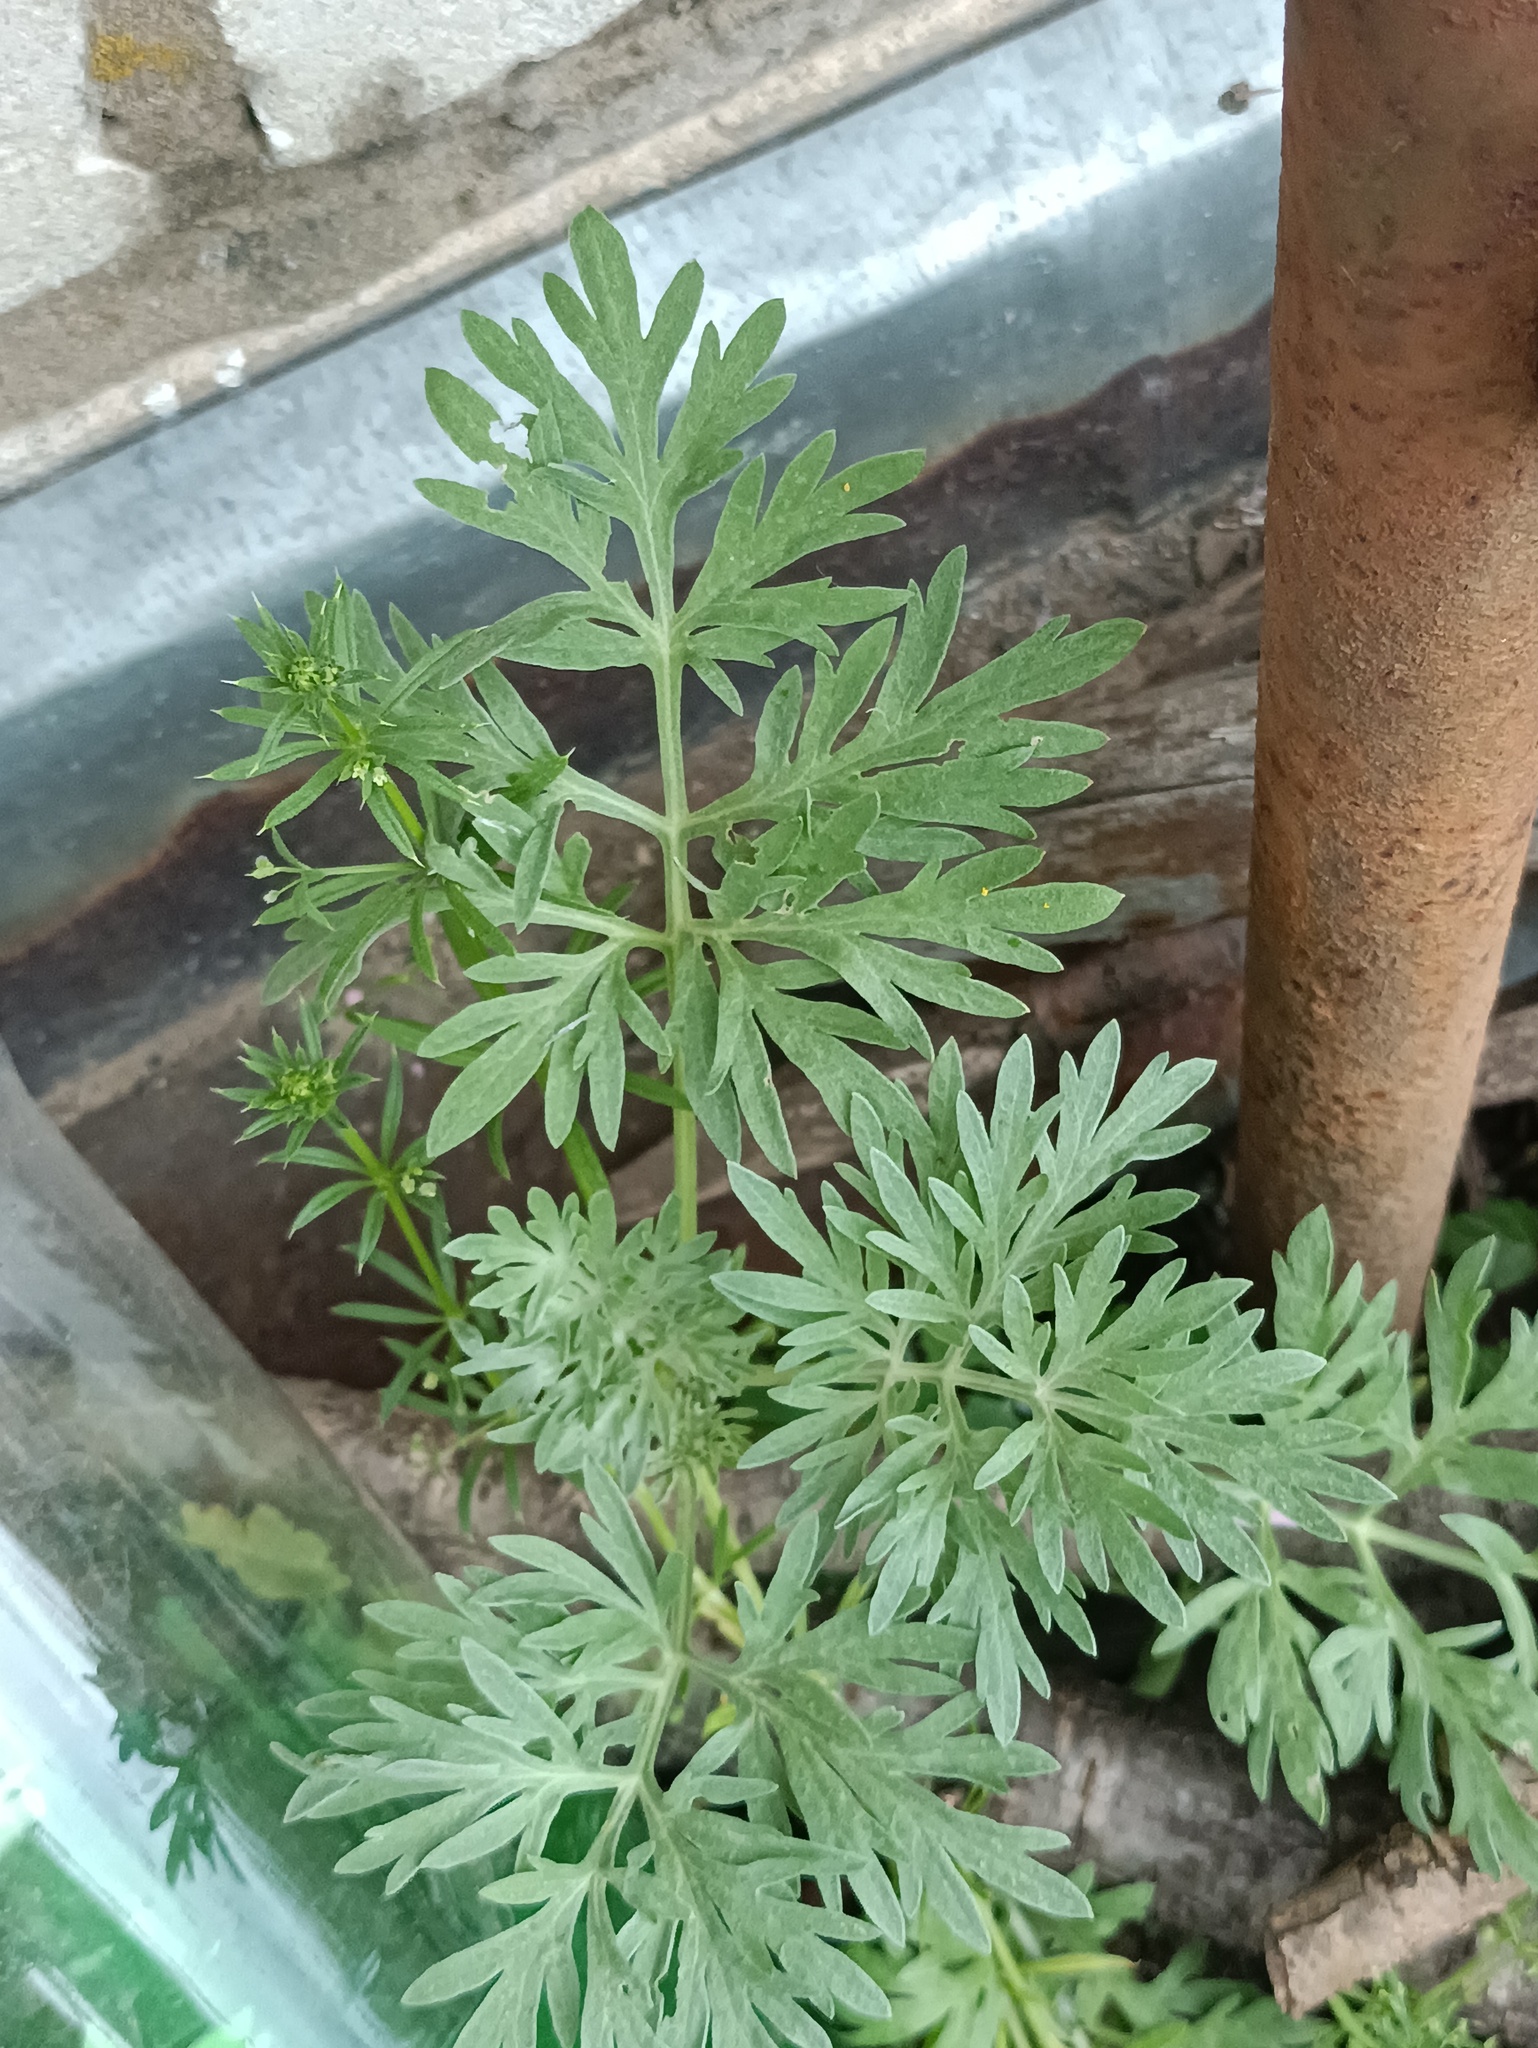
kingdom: Plantae
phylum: Tracheophyta
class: Magnoliopsida
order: Asterales
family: Asteraceae
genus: Artemisia
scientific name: Artemisia absinthium
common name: Wormwood
